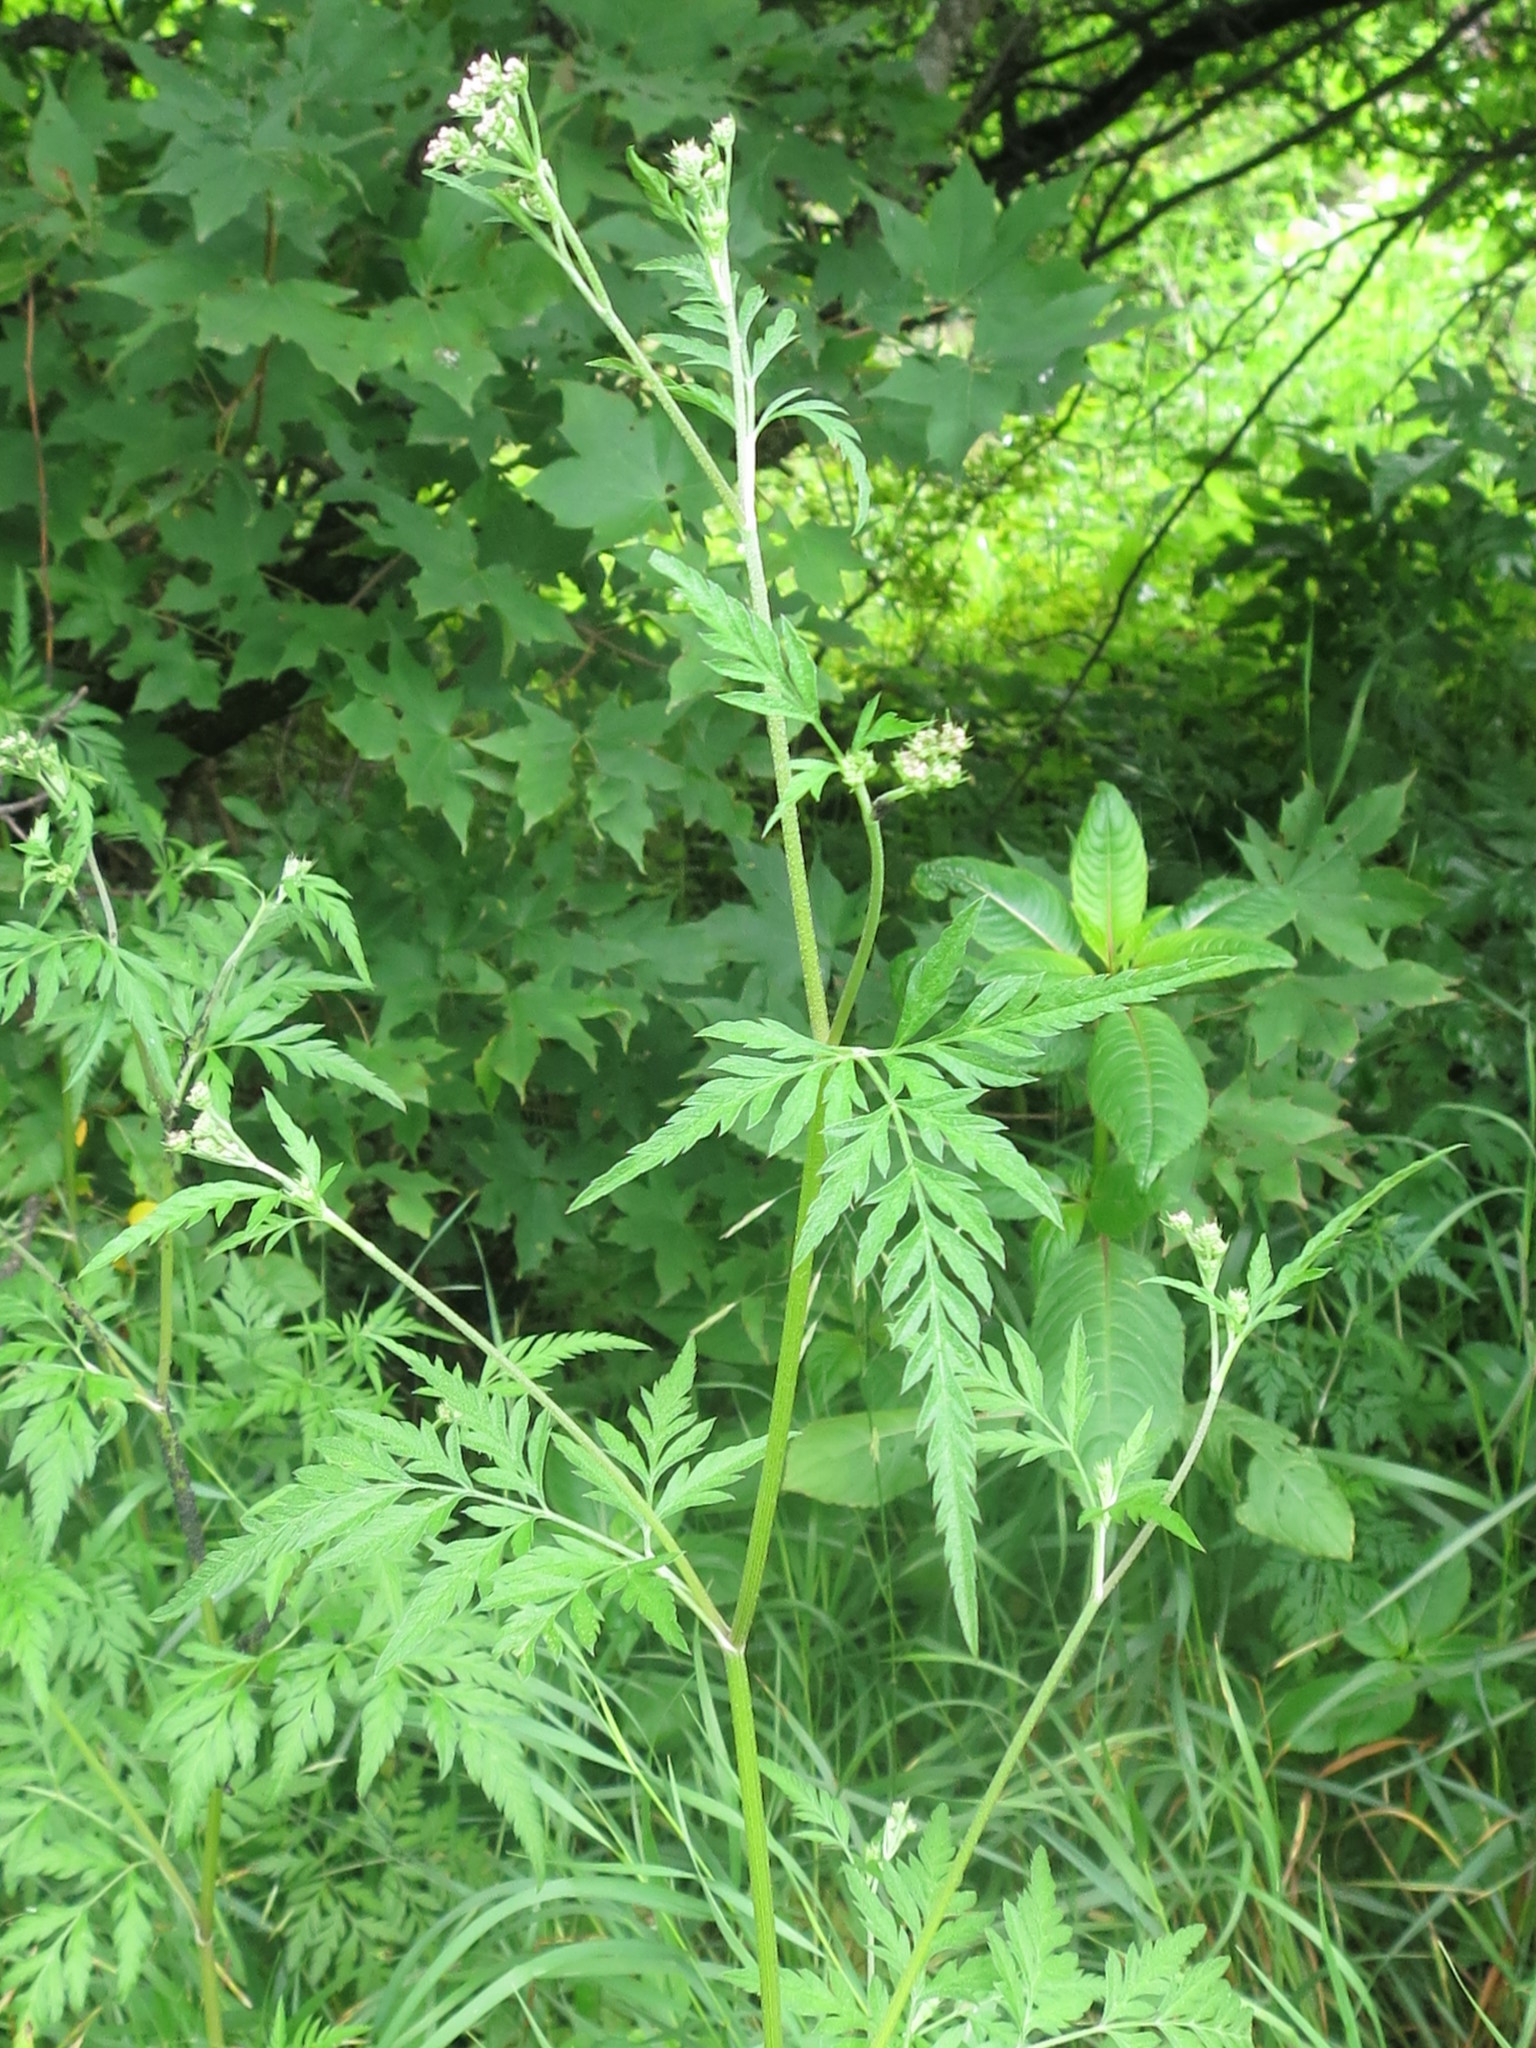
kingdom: Plantae
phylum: Tracheophyta
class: Magnoliopsida
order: Apiales
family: Apiaceae
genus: Torilis
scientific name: Torilis japonica
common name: Upright hedge-parsley
